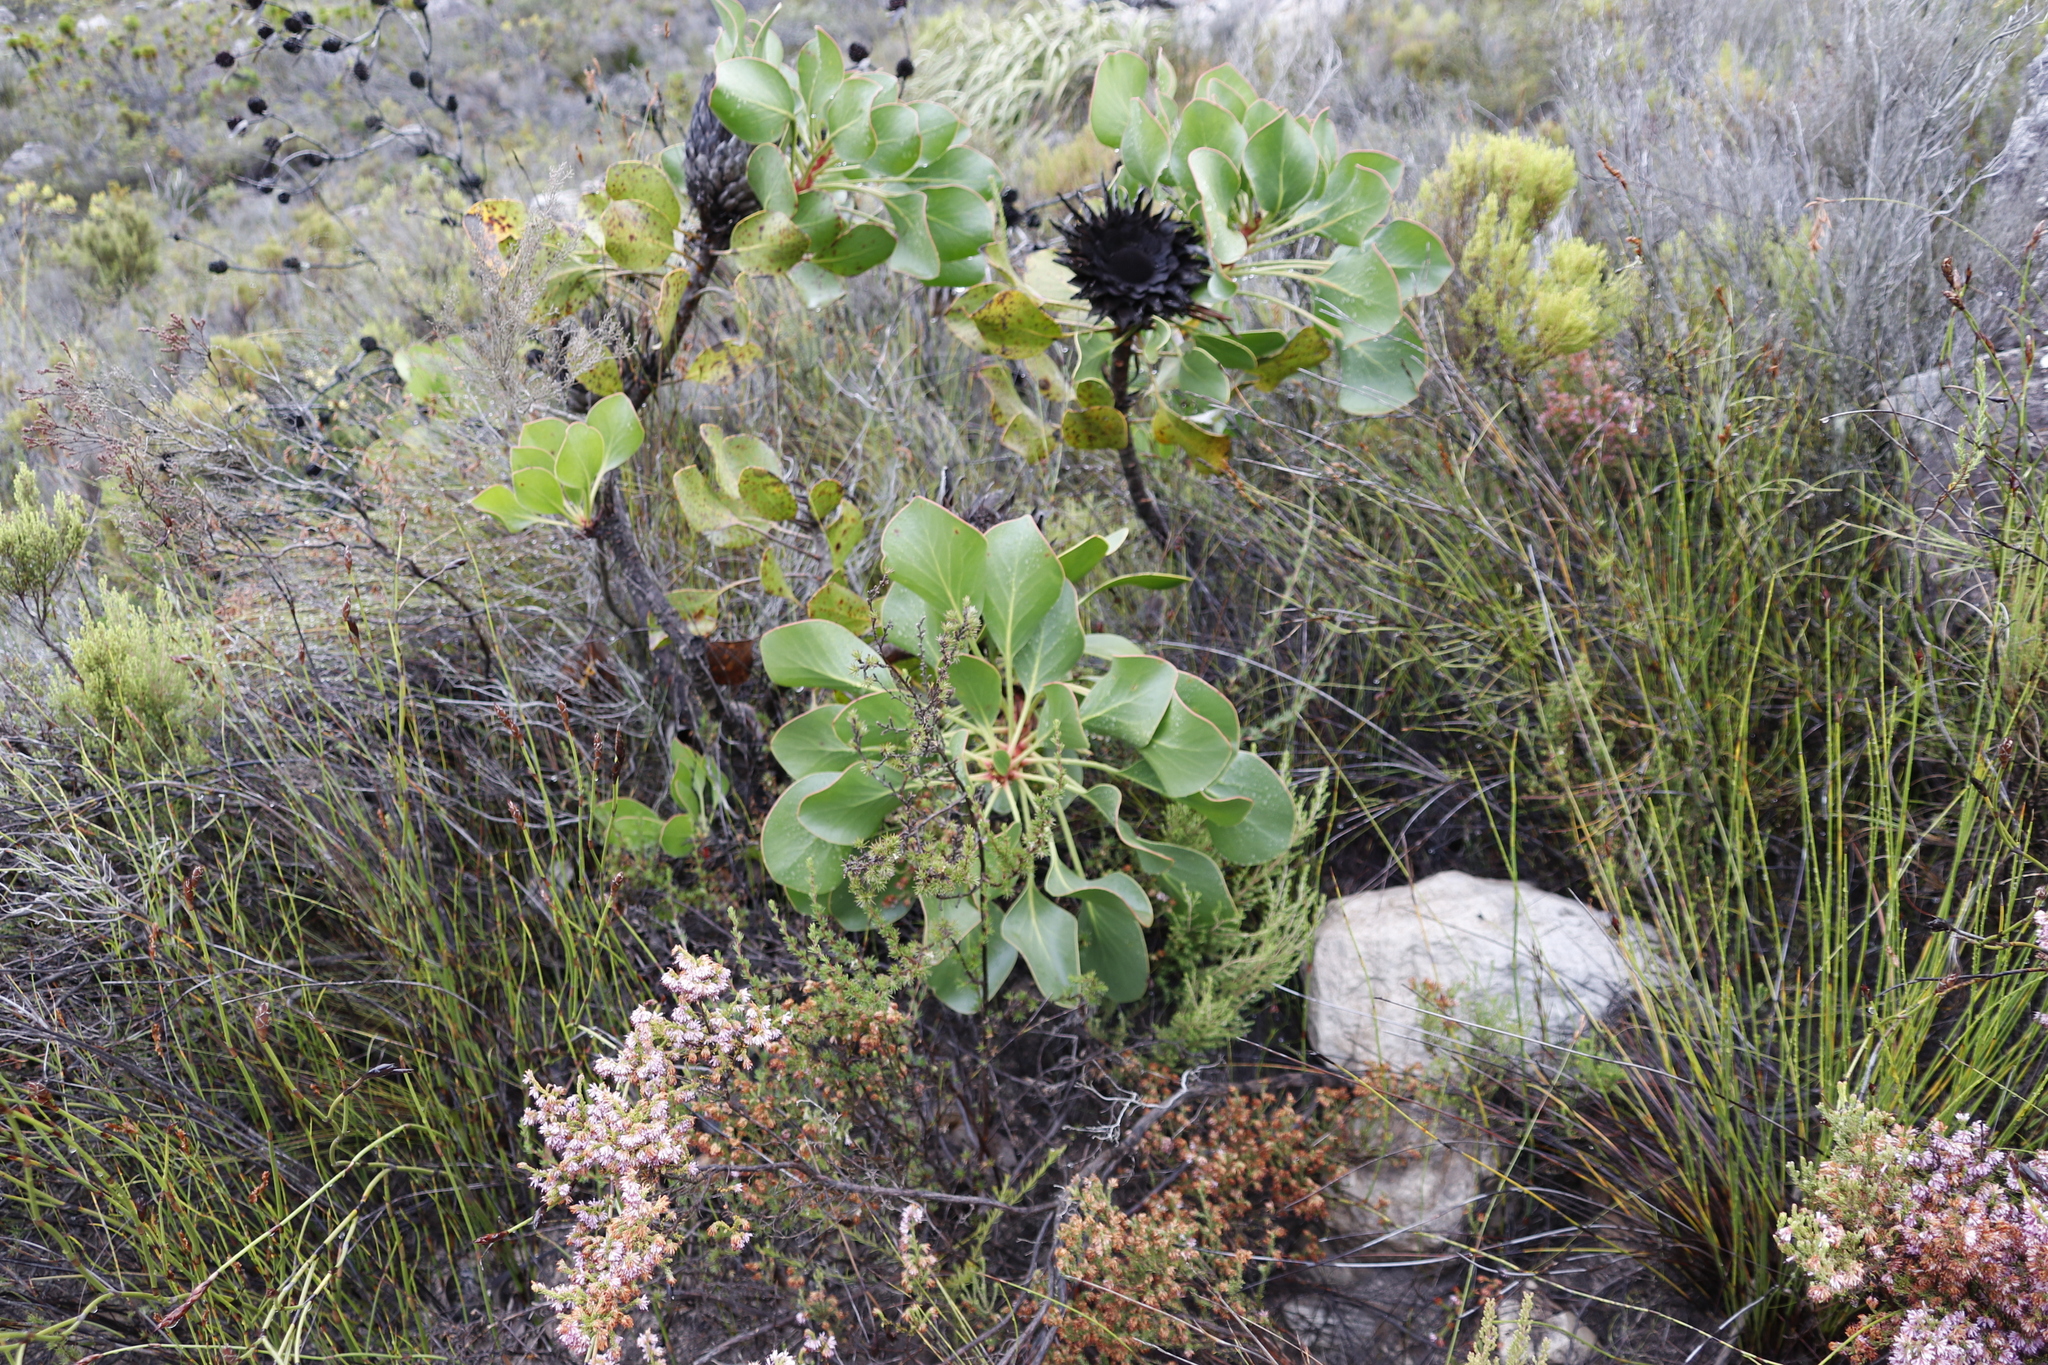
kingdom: Plantae
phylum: Tracheophyta
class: Magnoliopsida
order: Proteales
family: Proteaceae
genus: Protea
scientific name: Protea cynaroides
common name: King protea
